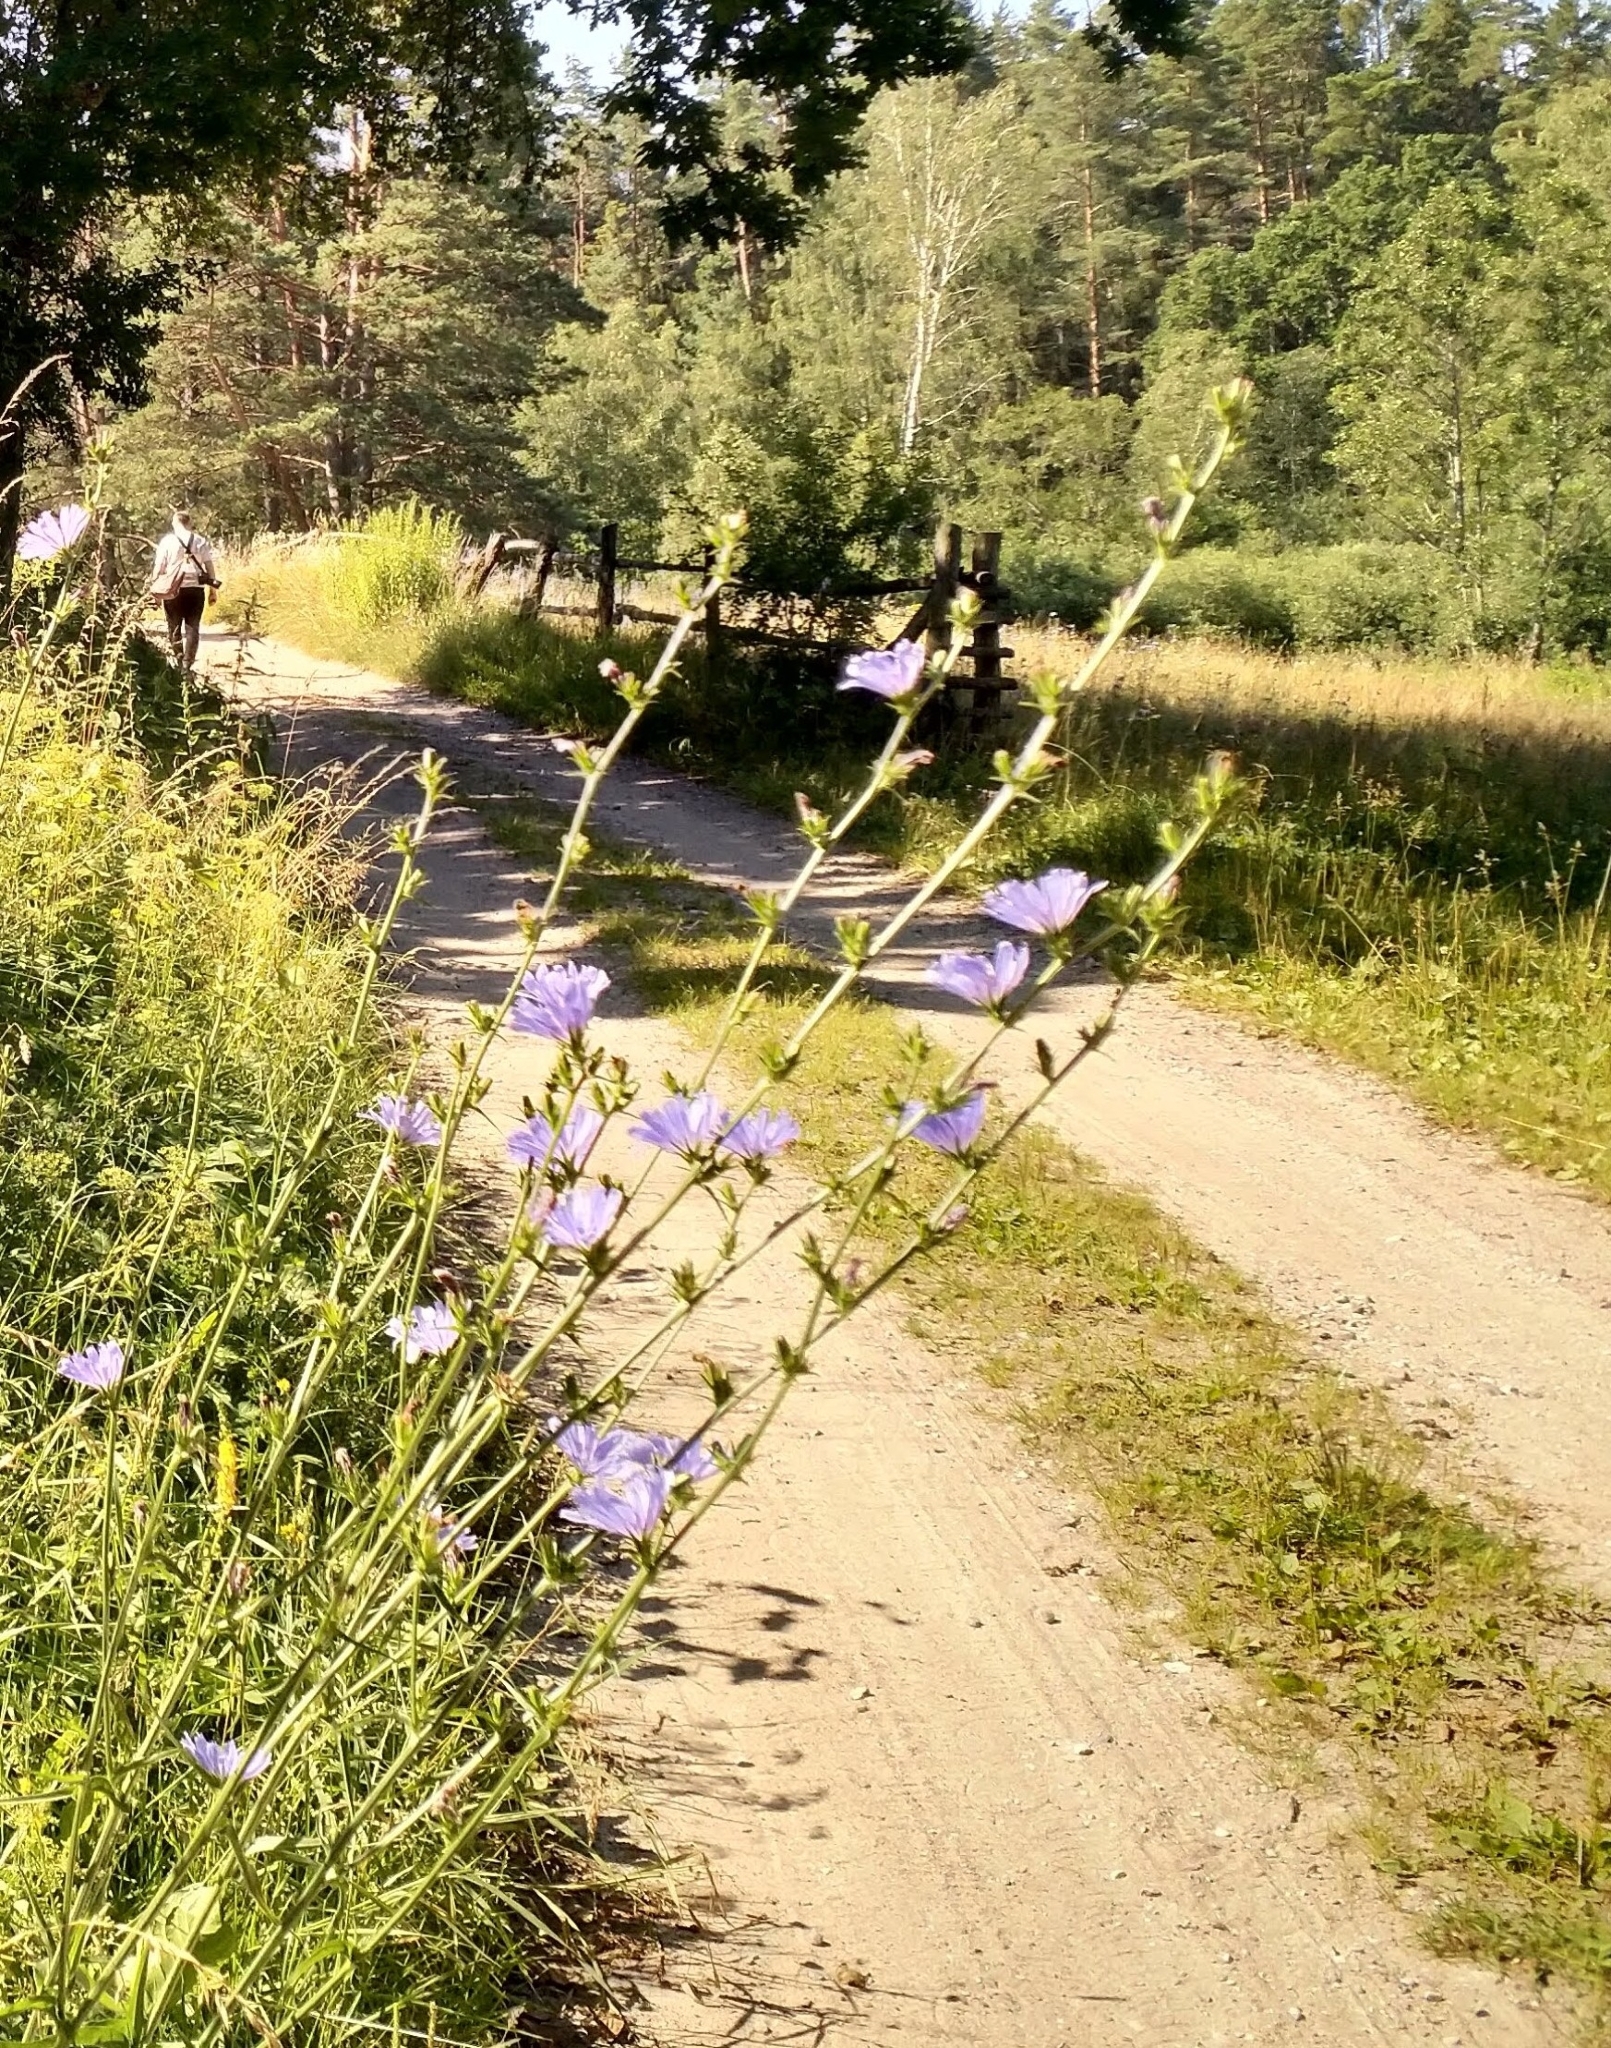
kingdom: Plantae
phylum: Tracheophyta
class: Magnoliopsida
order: Asterales
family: Asteraceae
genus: Cichorium
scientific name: Cichorium intybus
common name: Chicory
